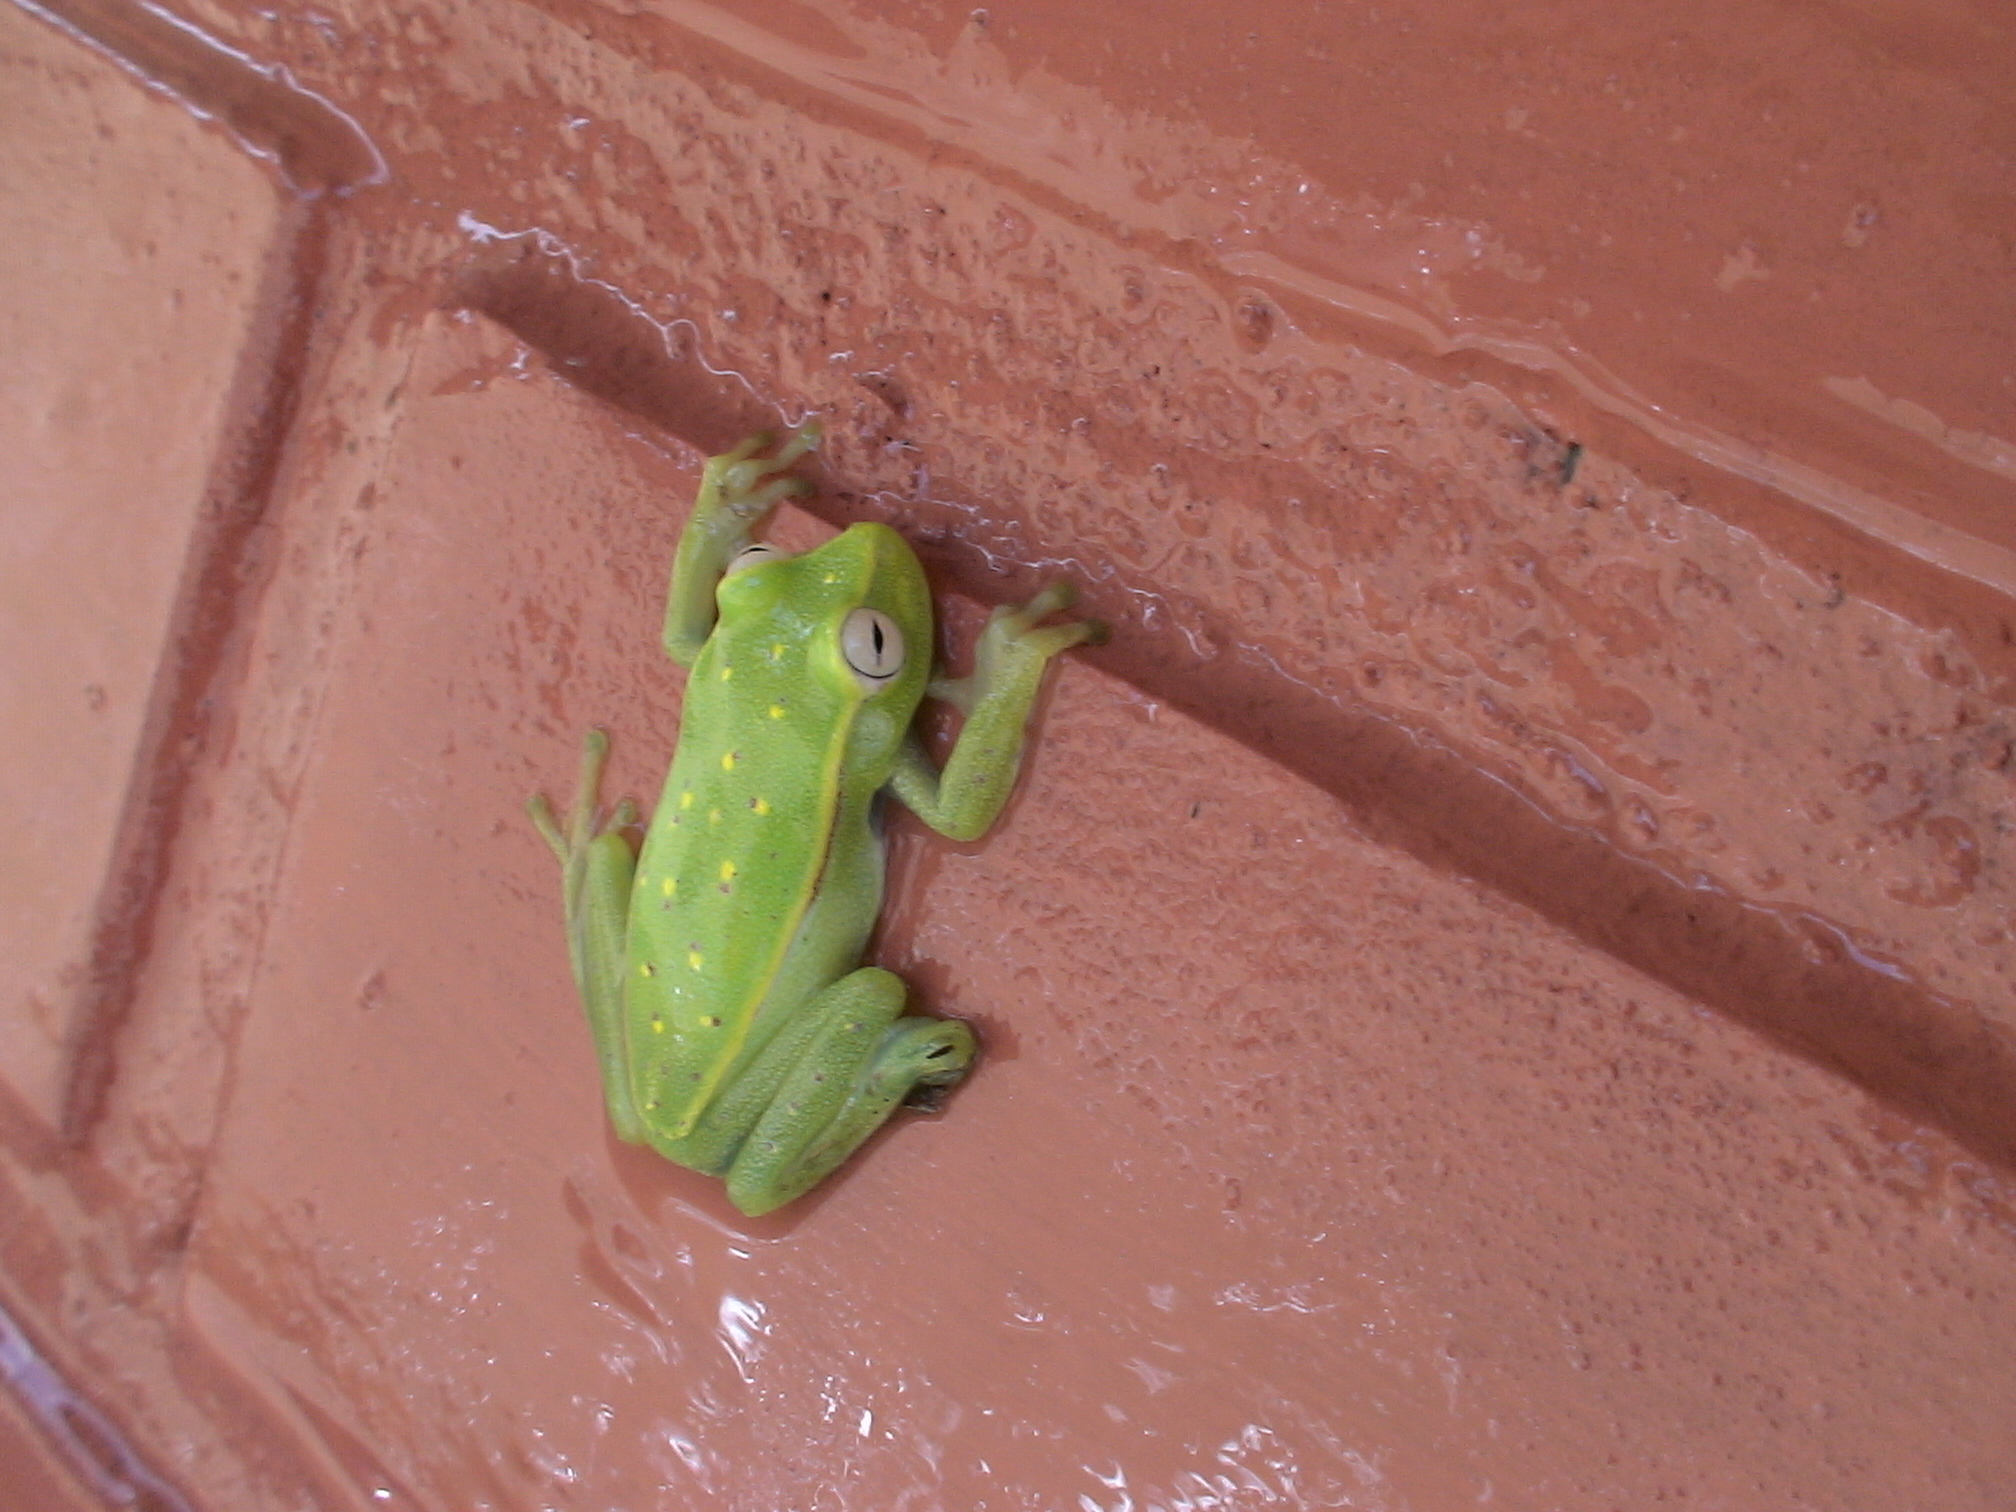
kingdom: Animalia
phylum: Chordata
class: Amphibia
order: Anura
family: Hylidae
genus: Boana
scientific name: Boana punctata
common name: Polka-dot treefrog
